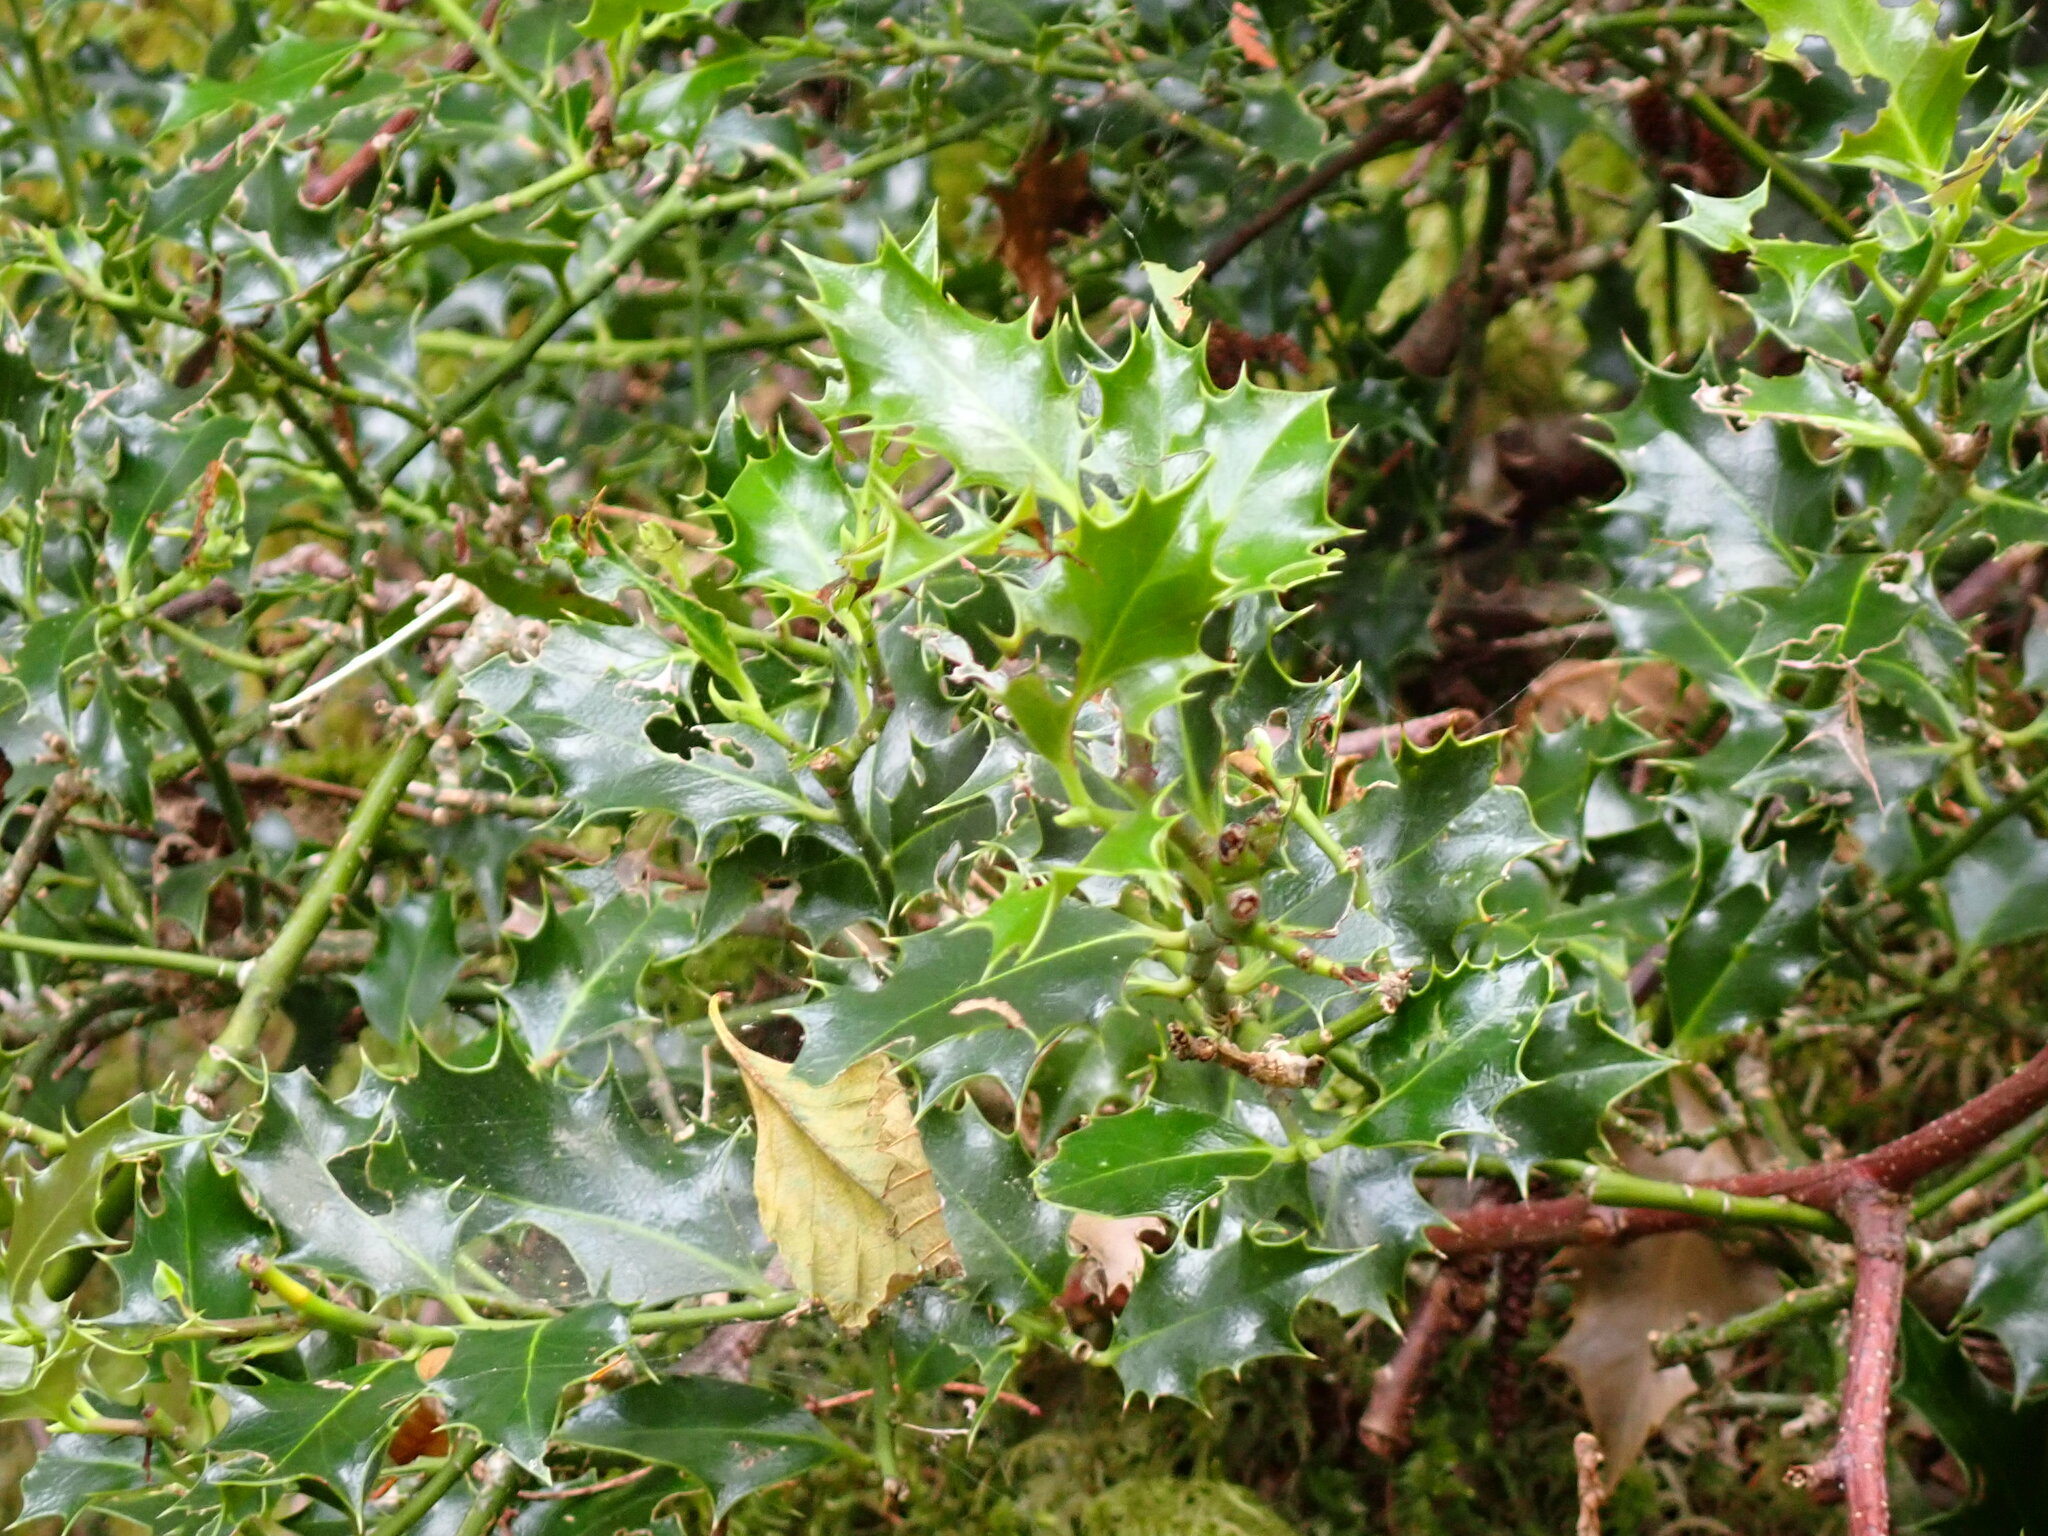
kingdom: Plantae
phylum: Tracheophyta
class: Magnoliopsida
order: Aquifoliales
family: Aquifoliaceae
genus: Ilex
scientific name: Ilex aquifolium
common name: English holly
